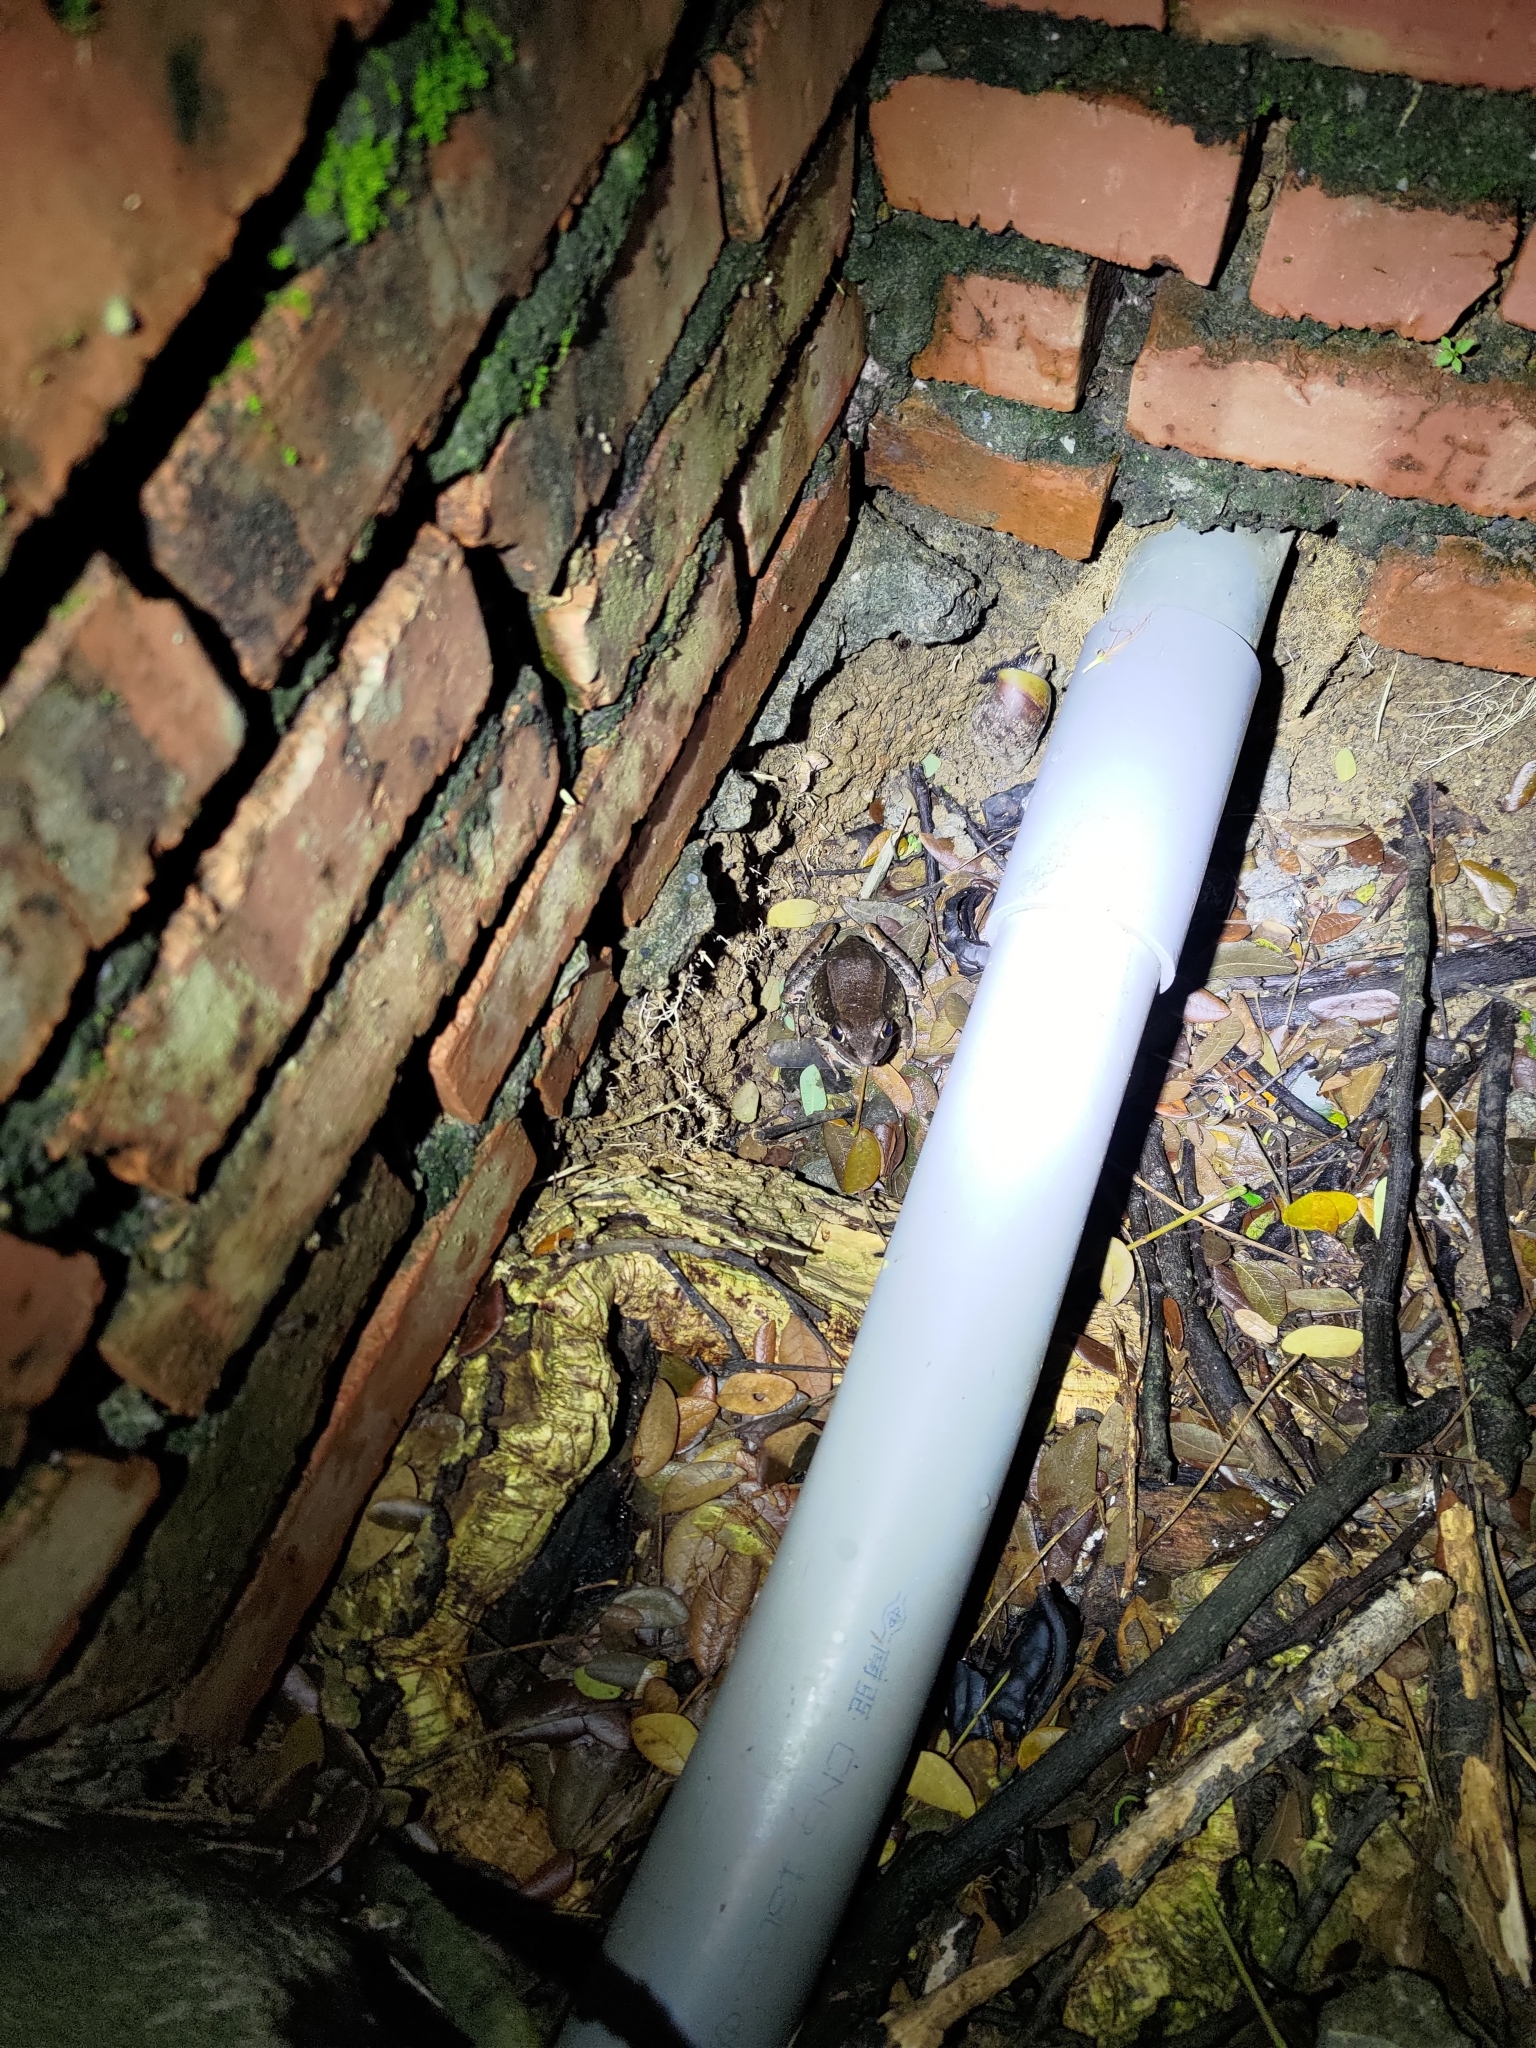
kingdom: Animalia
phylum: Chordata
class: Amphibia
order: Anura
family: Ranidae
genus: Sylvirana
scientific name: Sylvirana guentheri
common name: Guenther's amoy frog
